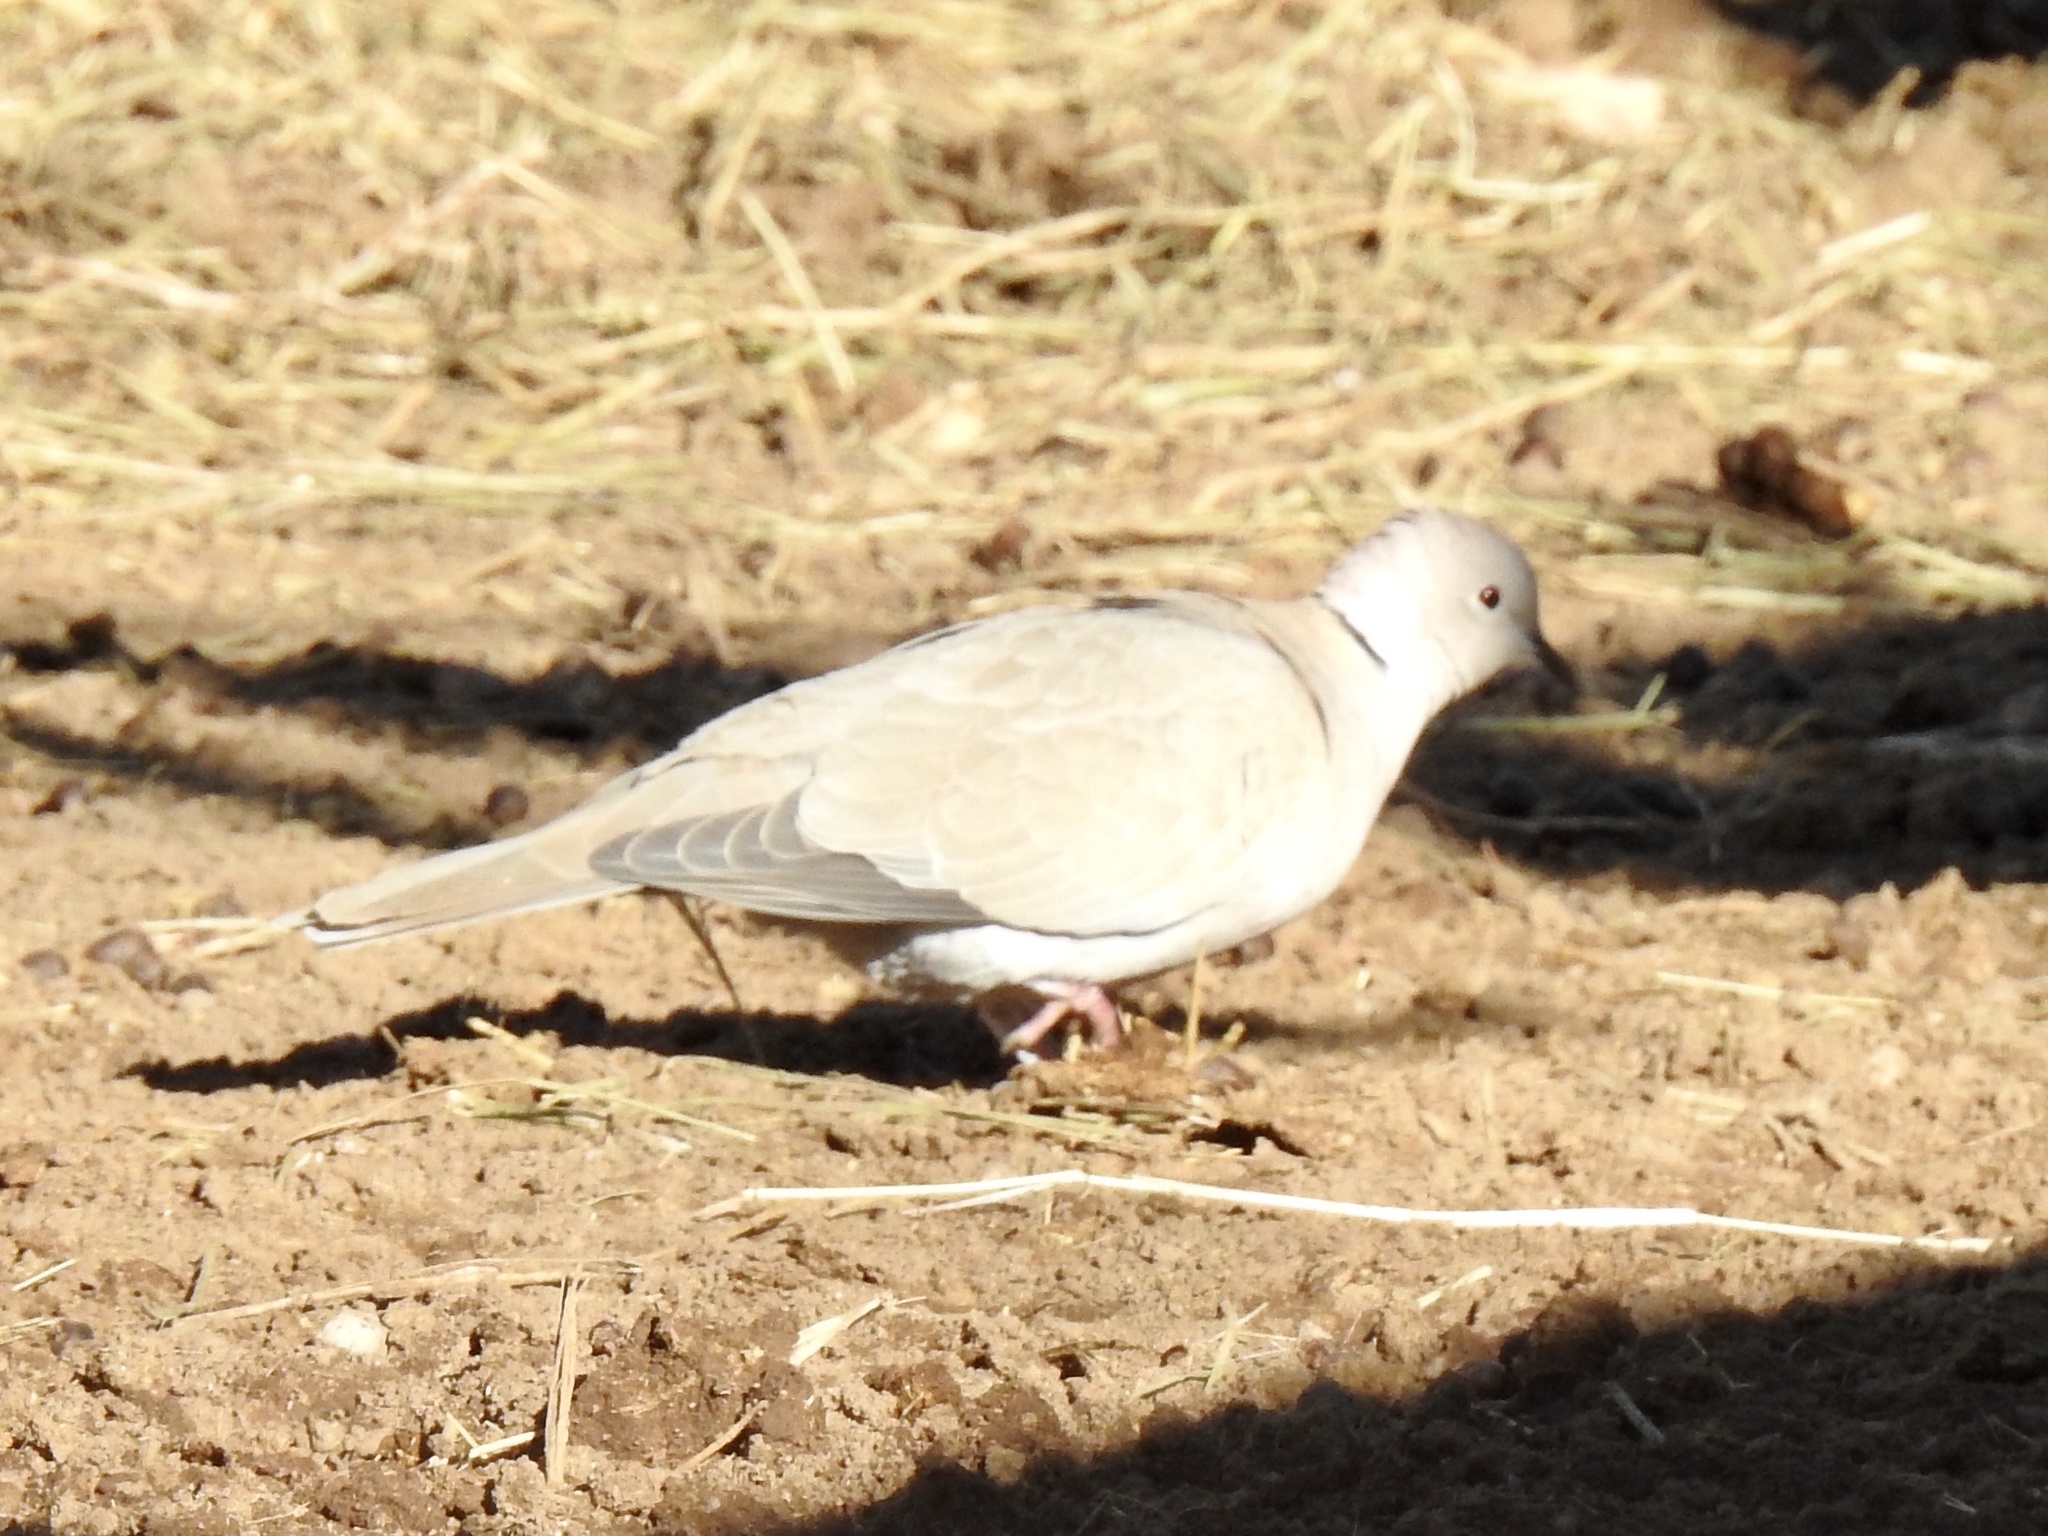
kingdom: Animalia
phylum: Chordata
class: Aves
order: Columbiformes
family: Columbidae
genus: Streptopelia
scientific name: Streptopelia decaocto
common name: Eurasian collared dove
